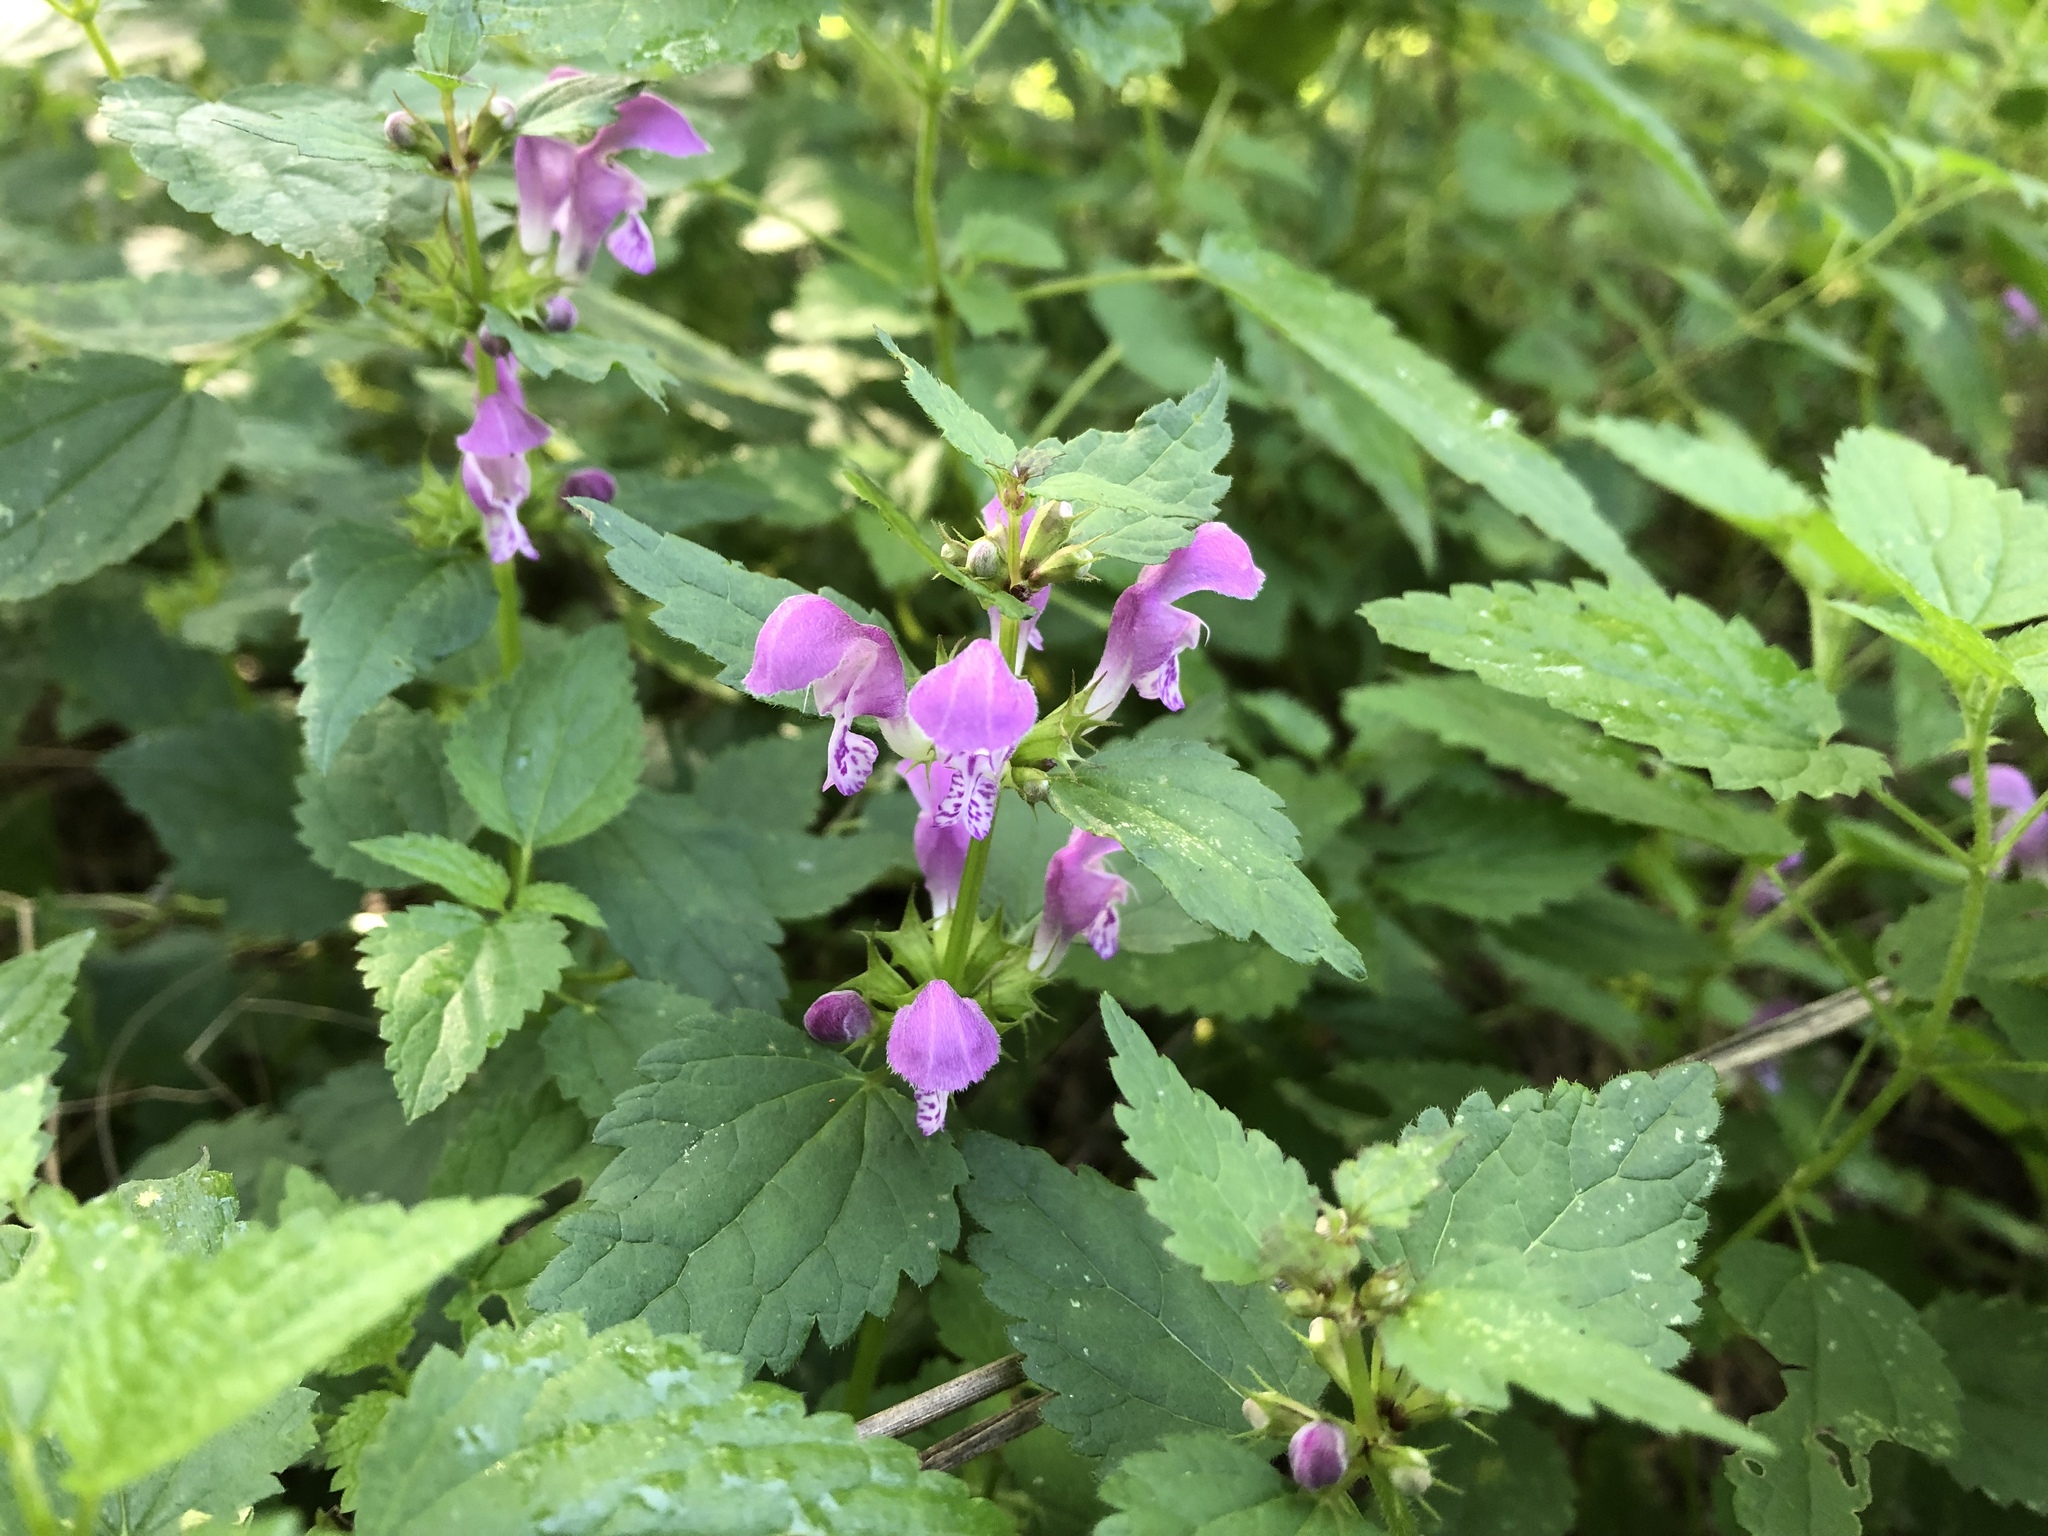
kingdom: Plantae
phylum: Tracheophyta
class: Magnoliopsida
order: Lamiales
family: Lamiaceae
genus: Lamium
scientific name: Lamium maculatum
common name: Spotted dead-nettle
